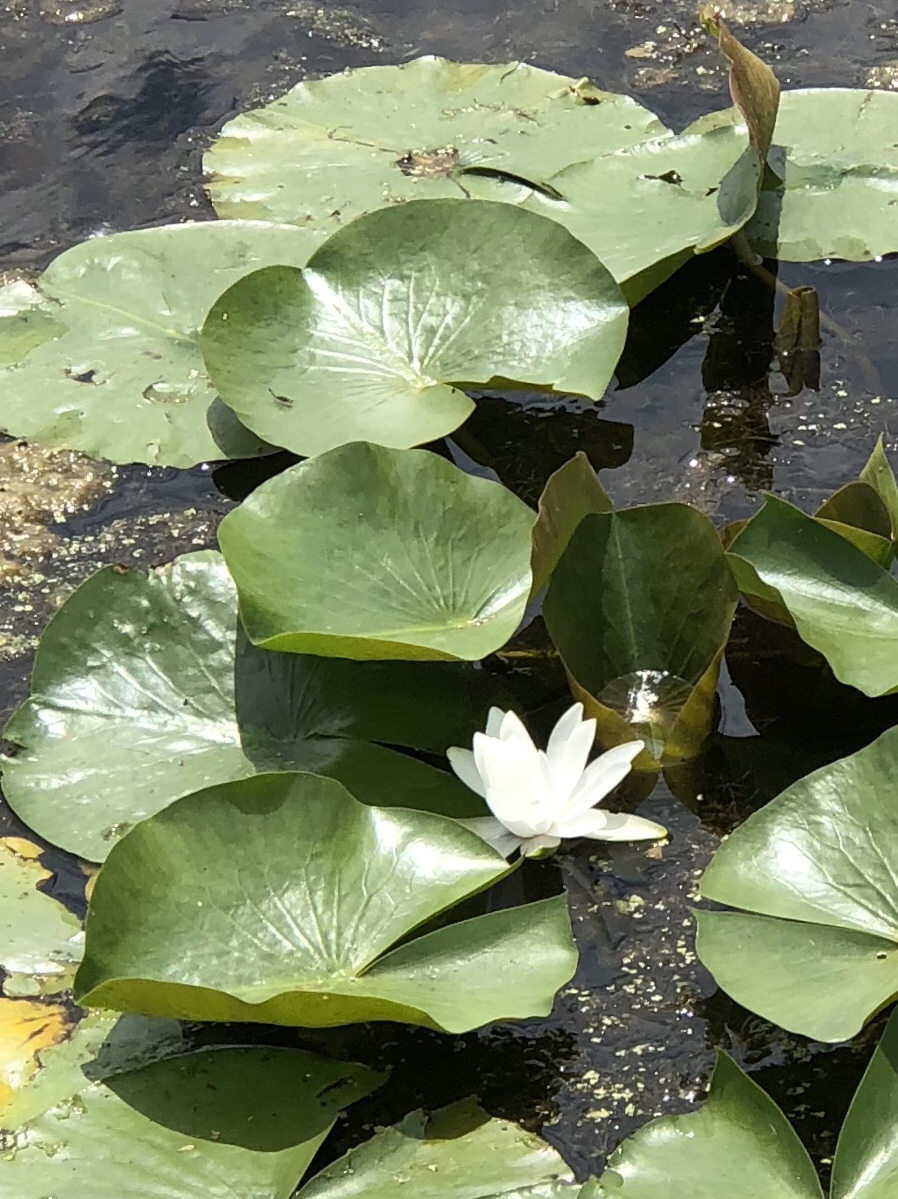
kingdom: Plantae
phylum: Tracheophyta
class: Magnoliopsida
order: Nymphaeales
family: Nymphaeaceae
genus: Nymphaea
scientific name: Nymphaea odorata
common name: Fragrant water-lily
